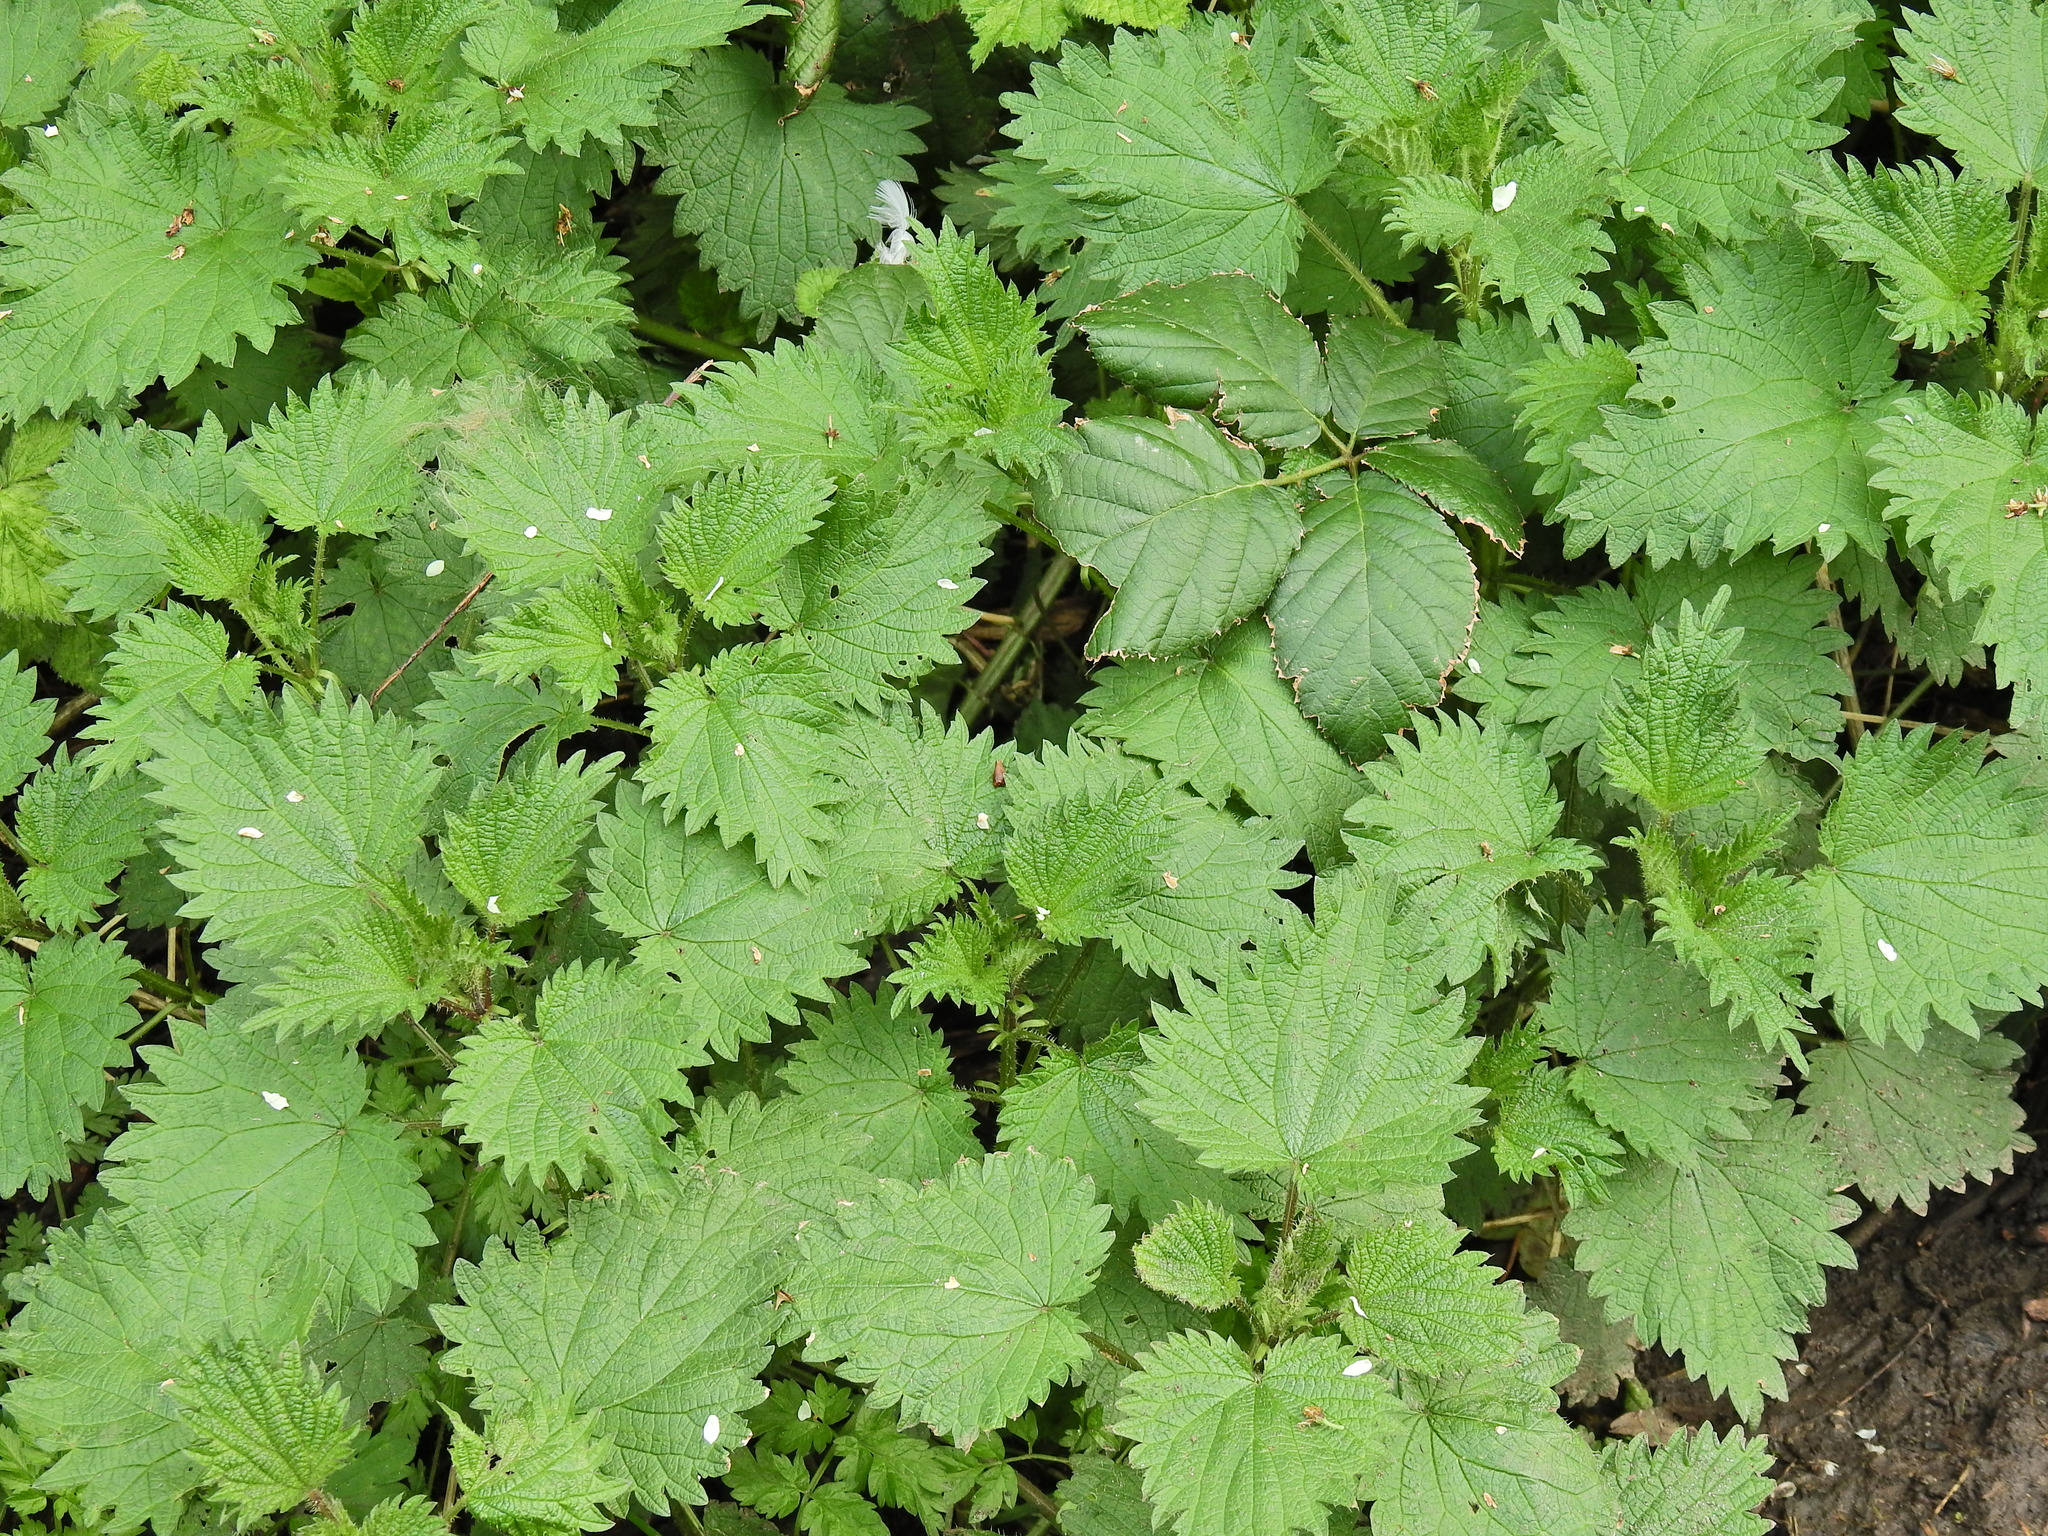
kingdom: Plantae
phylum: Tracheophyta
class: Magnoliopsida
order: Rosales
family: Urticaceae
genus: Urtica
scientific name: Urtica dioica
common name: Common nettle
